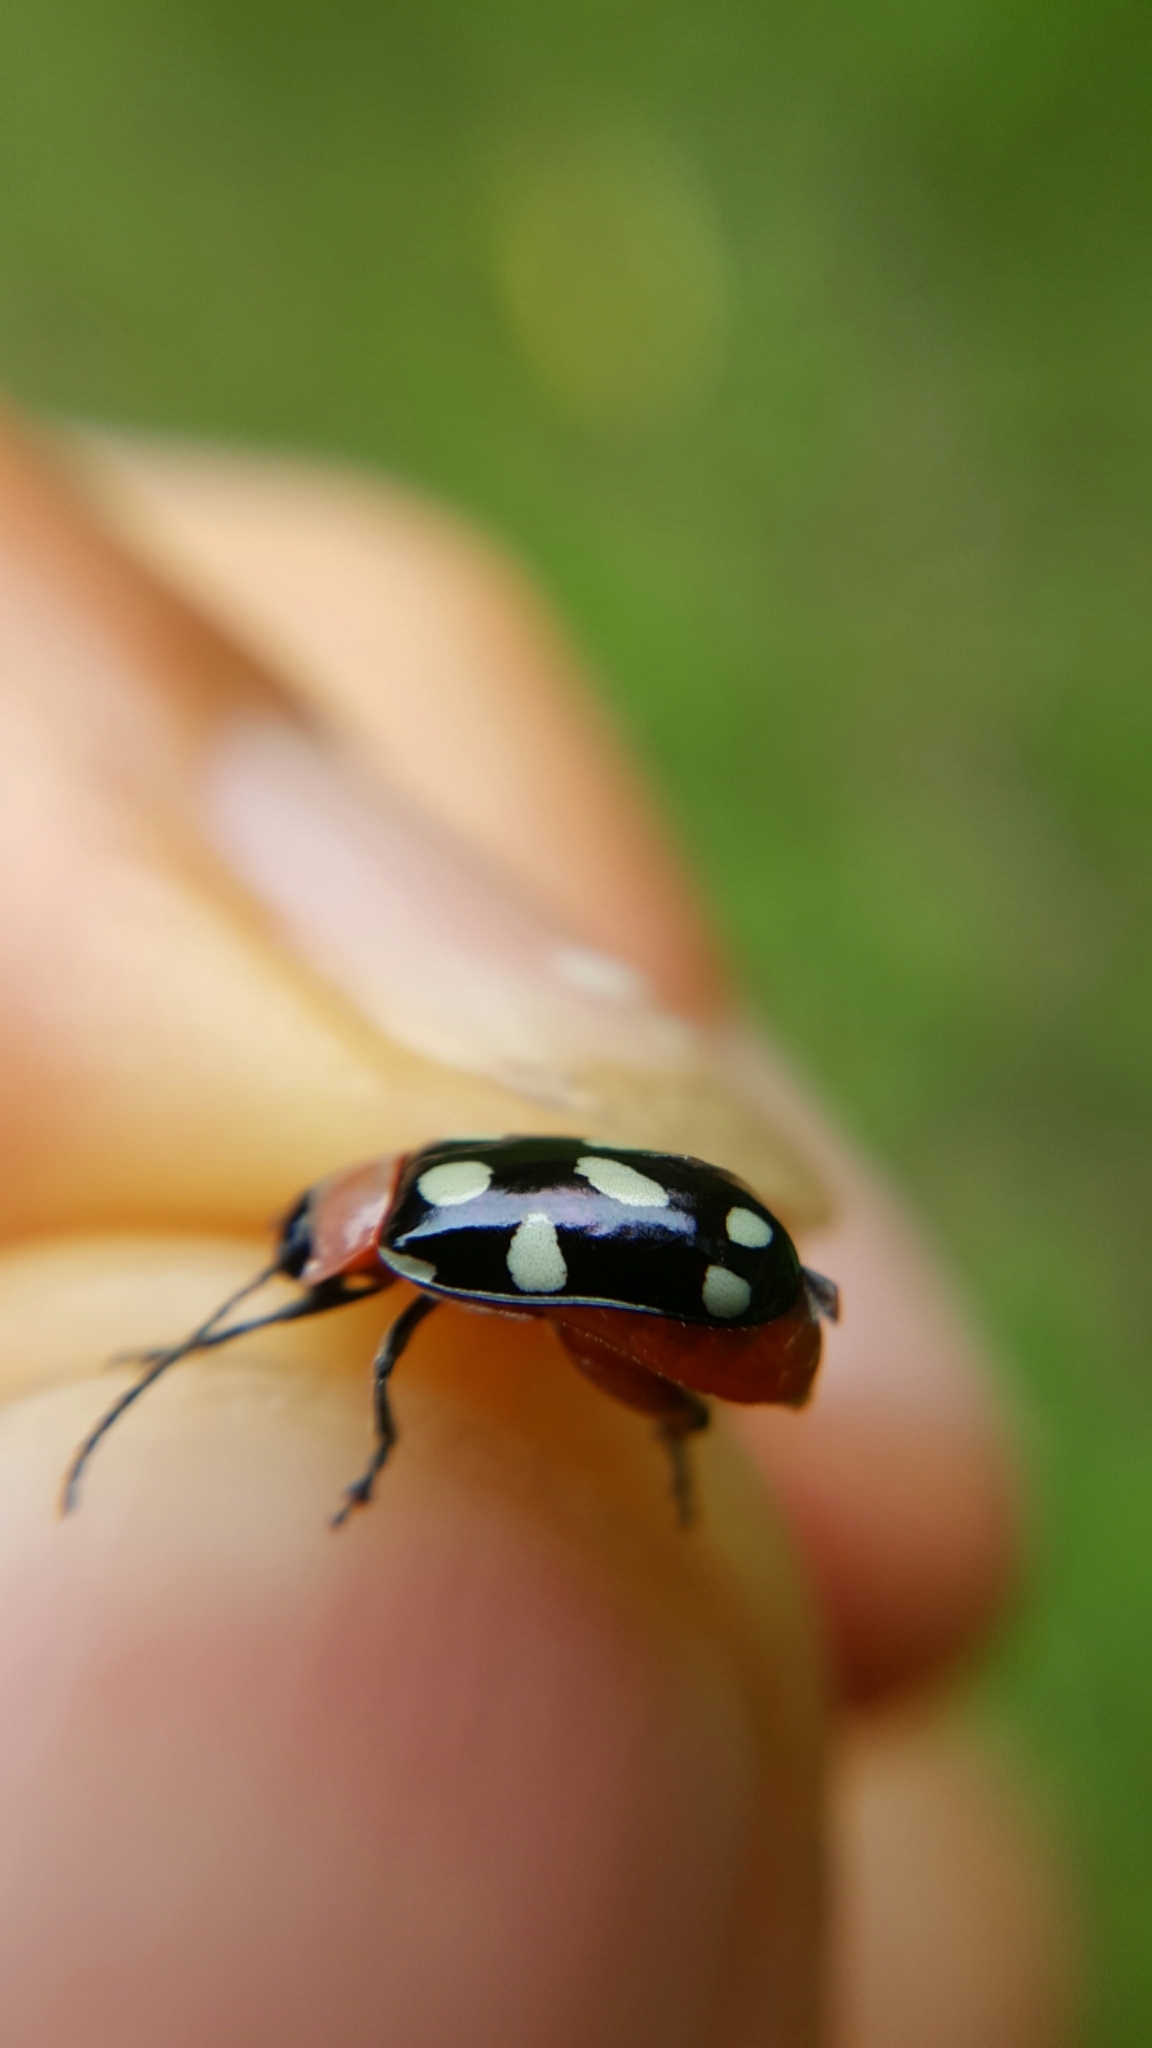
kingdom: Animalia
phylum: Arthropoda
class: Insecta
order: Coleoptera
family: Chrysomelidae
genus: Omophoita
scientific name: Omophoita
